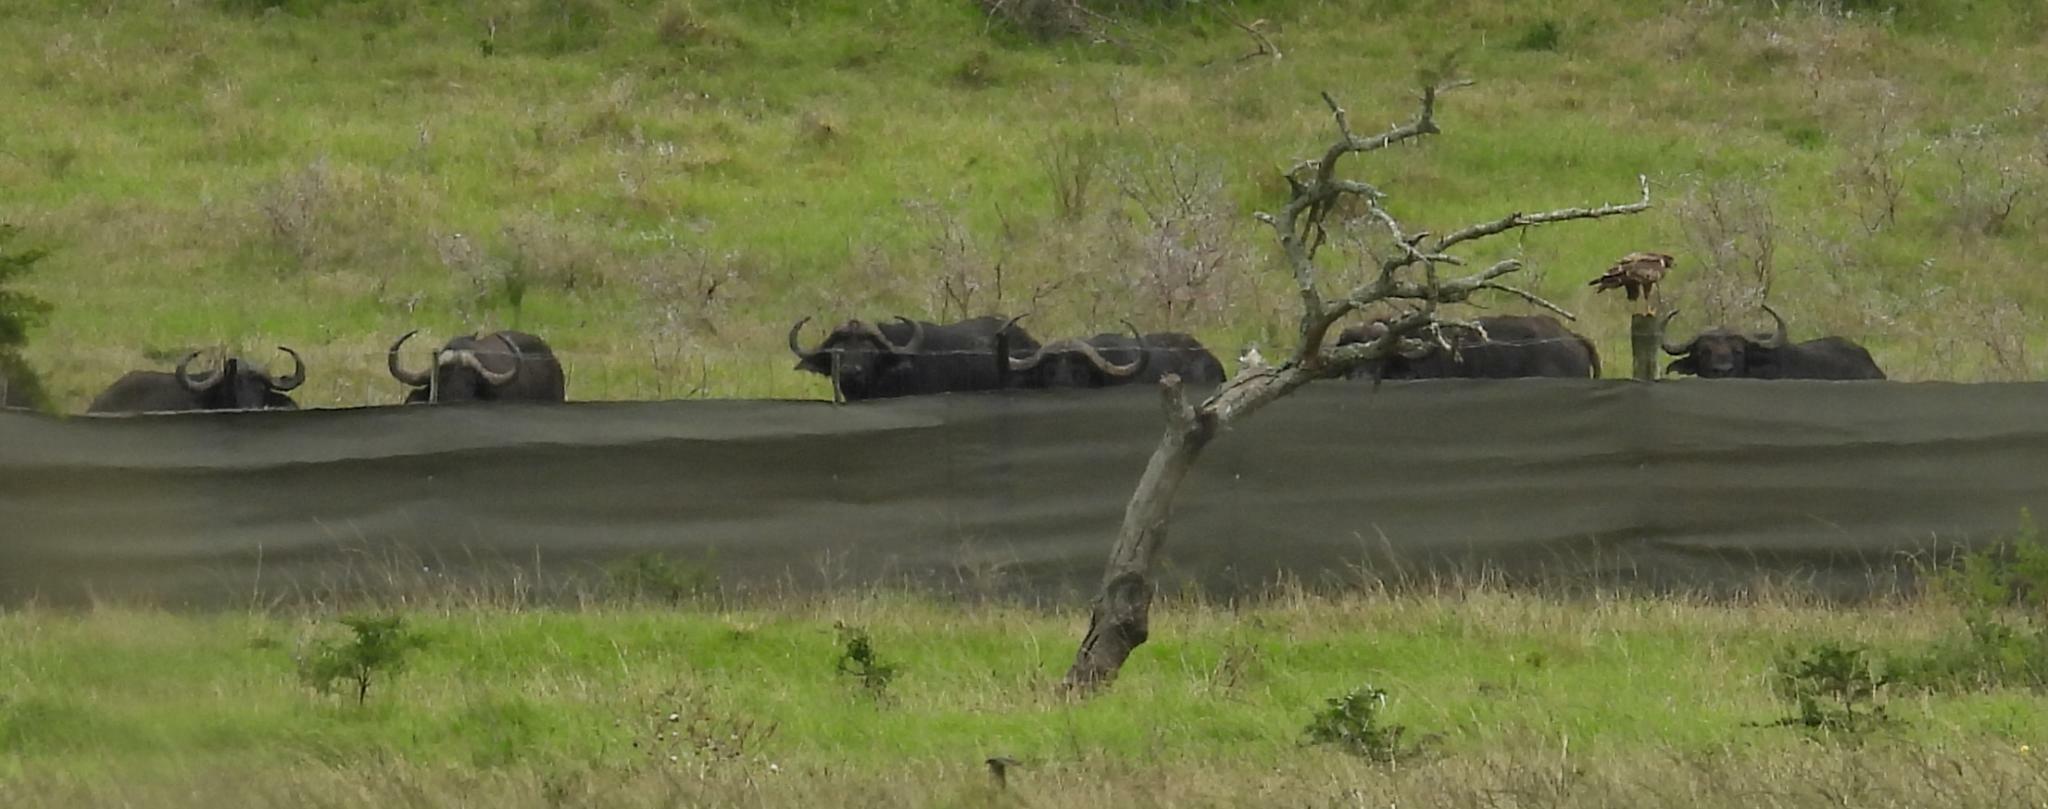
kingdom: Animalia
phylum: Chordata
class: Mammalia
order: Artiodactyla
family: Bovidae
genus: Syncerus
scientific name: Syncerus caffer
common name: African buffalo
